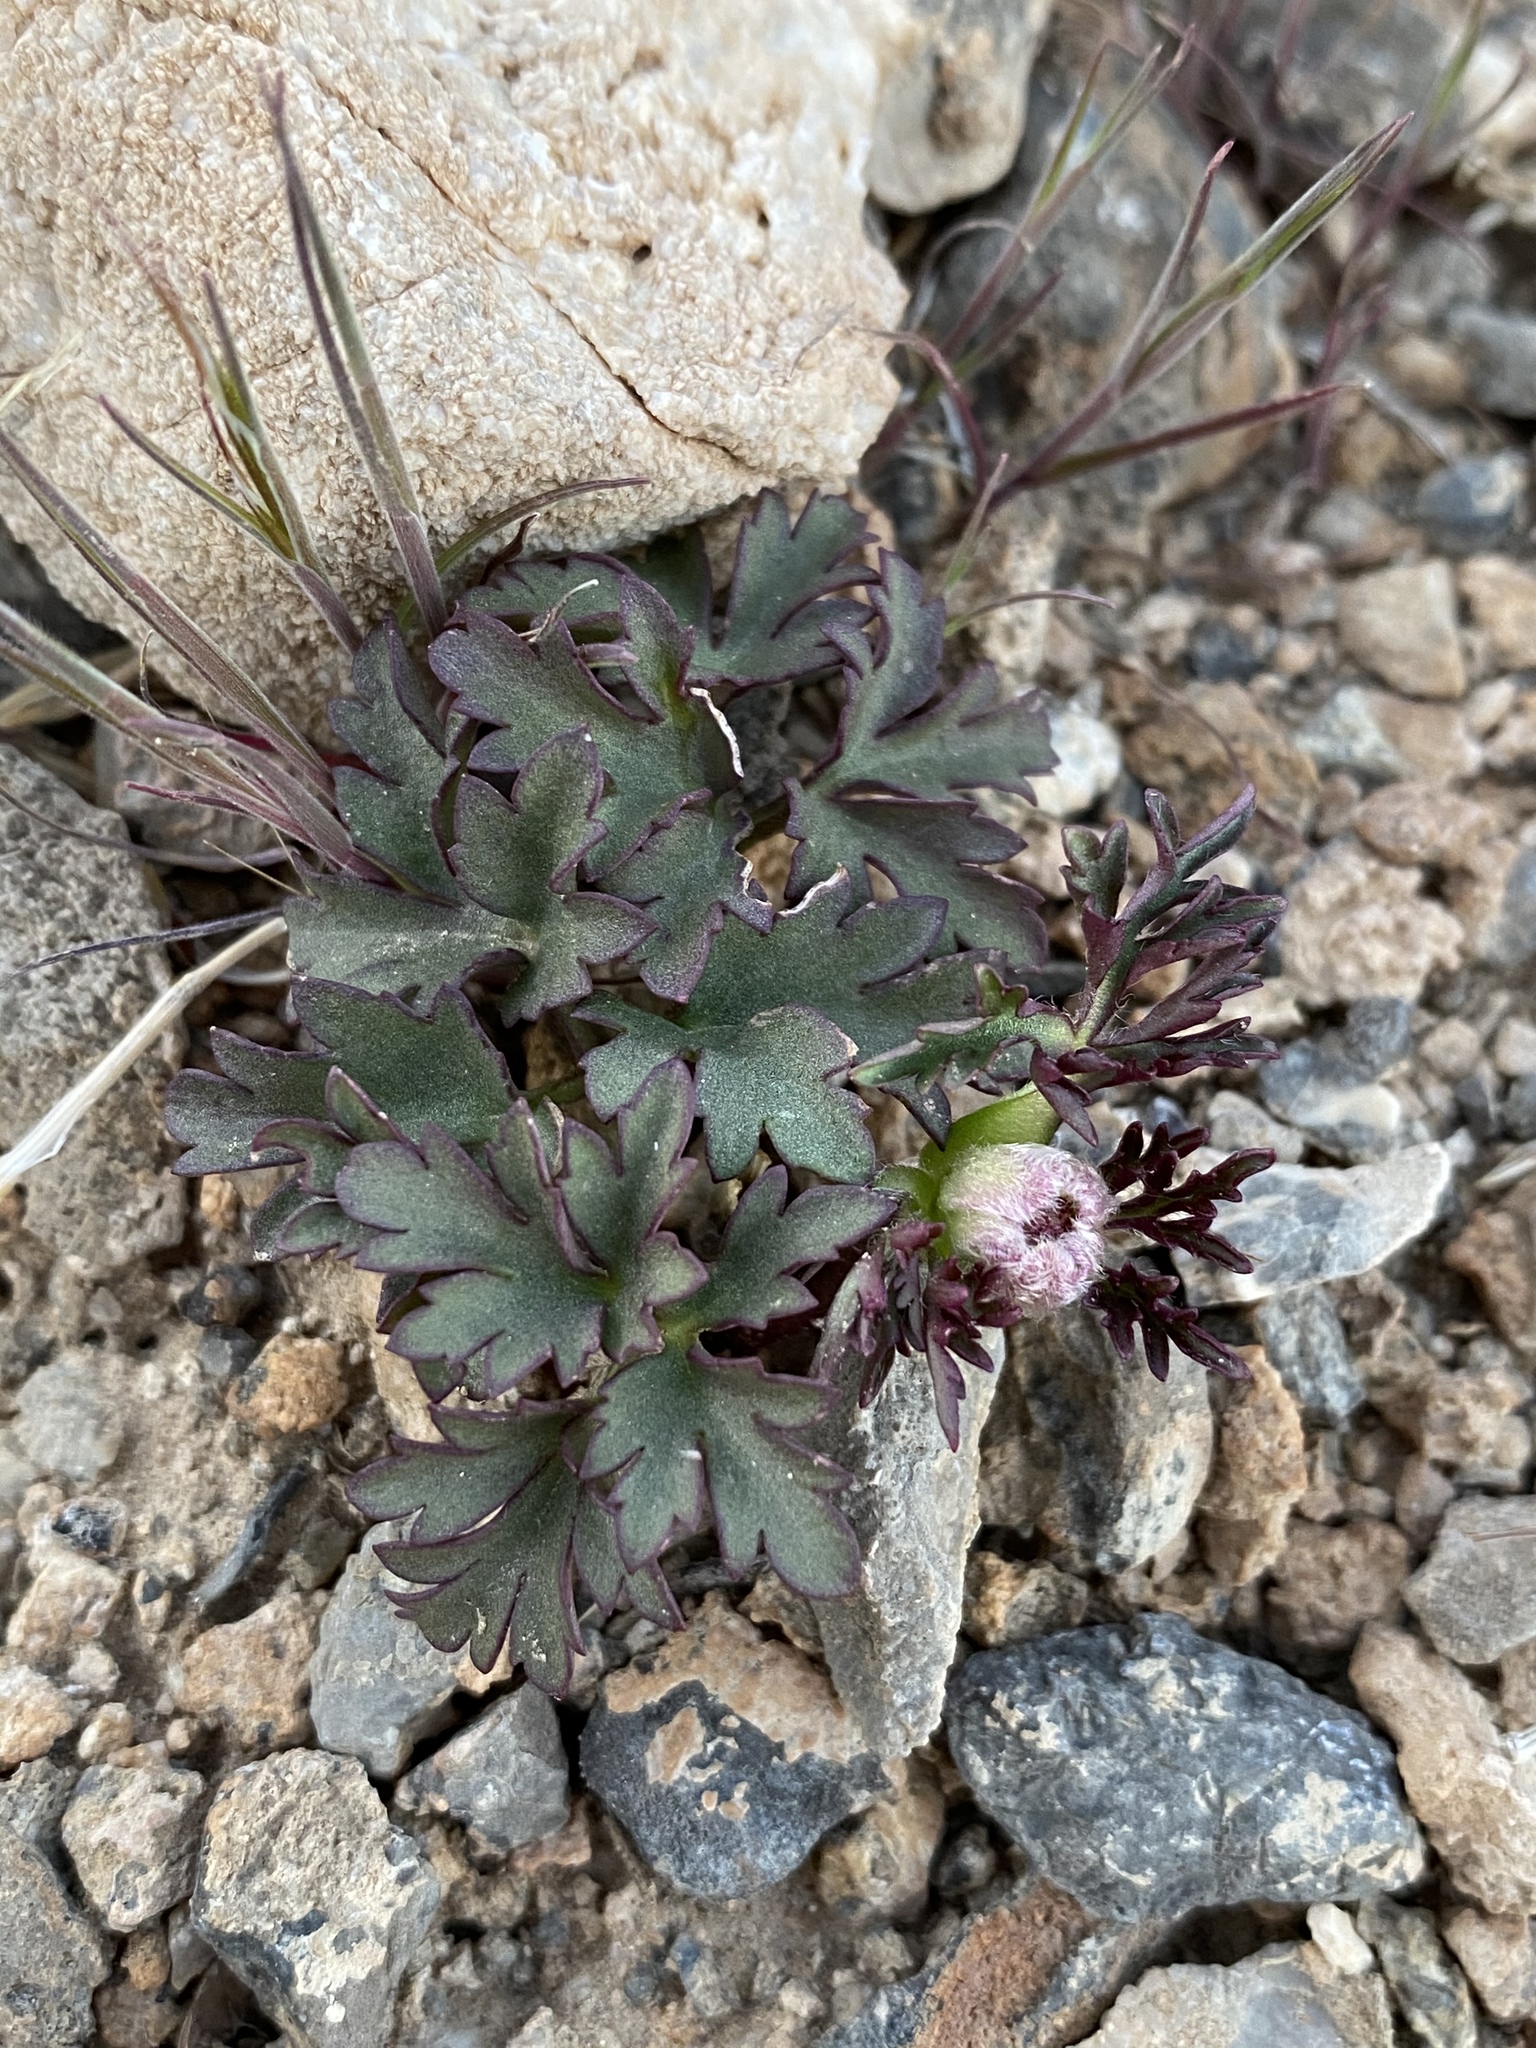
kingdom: Plantae
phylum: Tracheophyta
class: Magnoliopsida
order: Ranunculales
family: Ranunculaceae
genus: Anemone
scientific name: Anemone tuberosa
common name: Desert anemone
